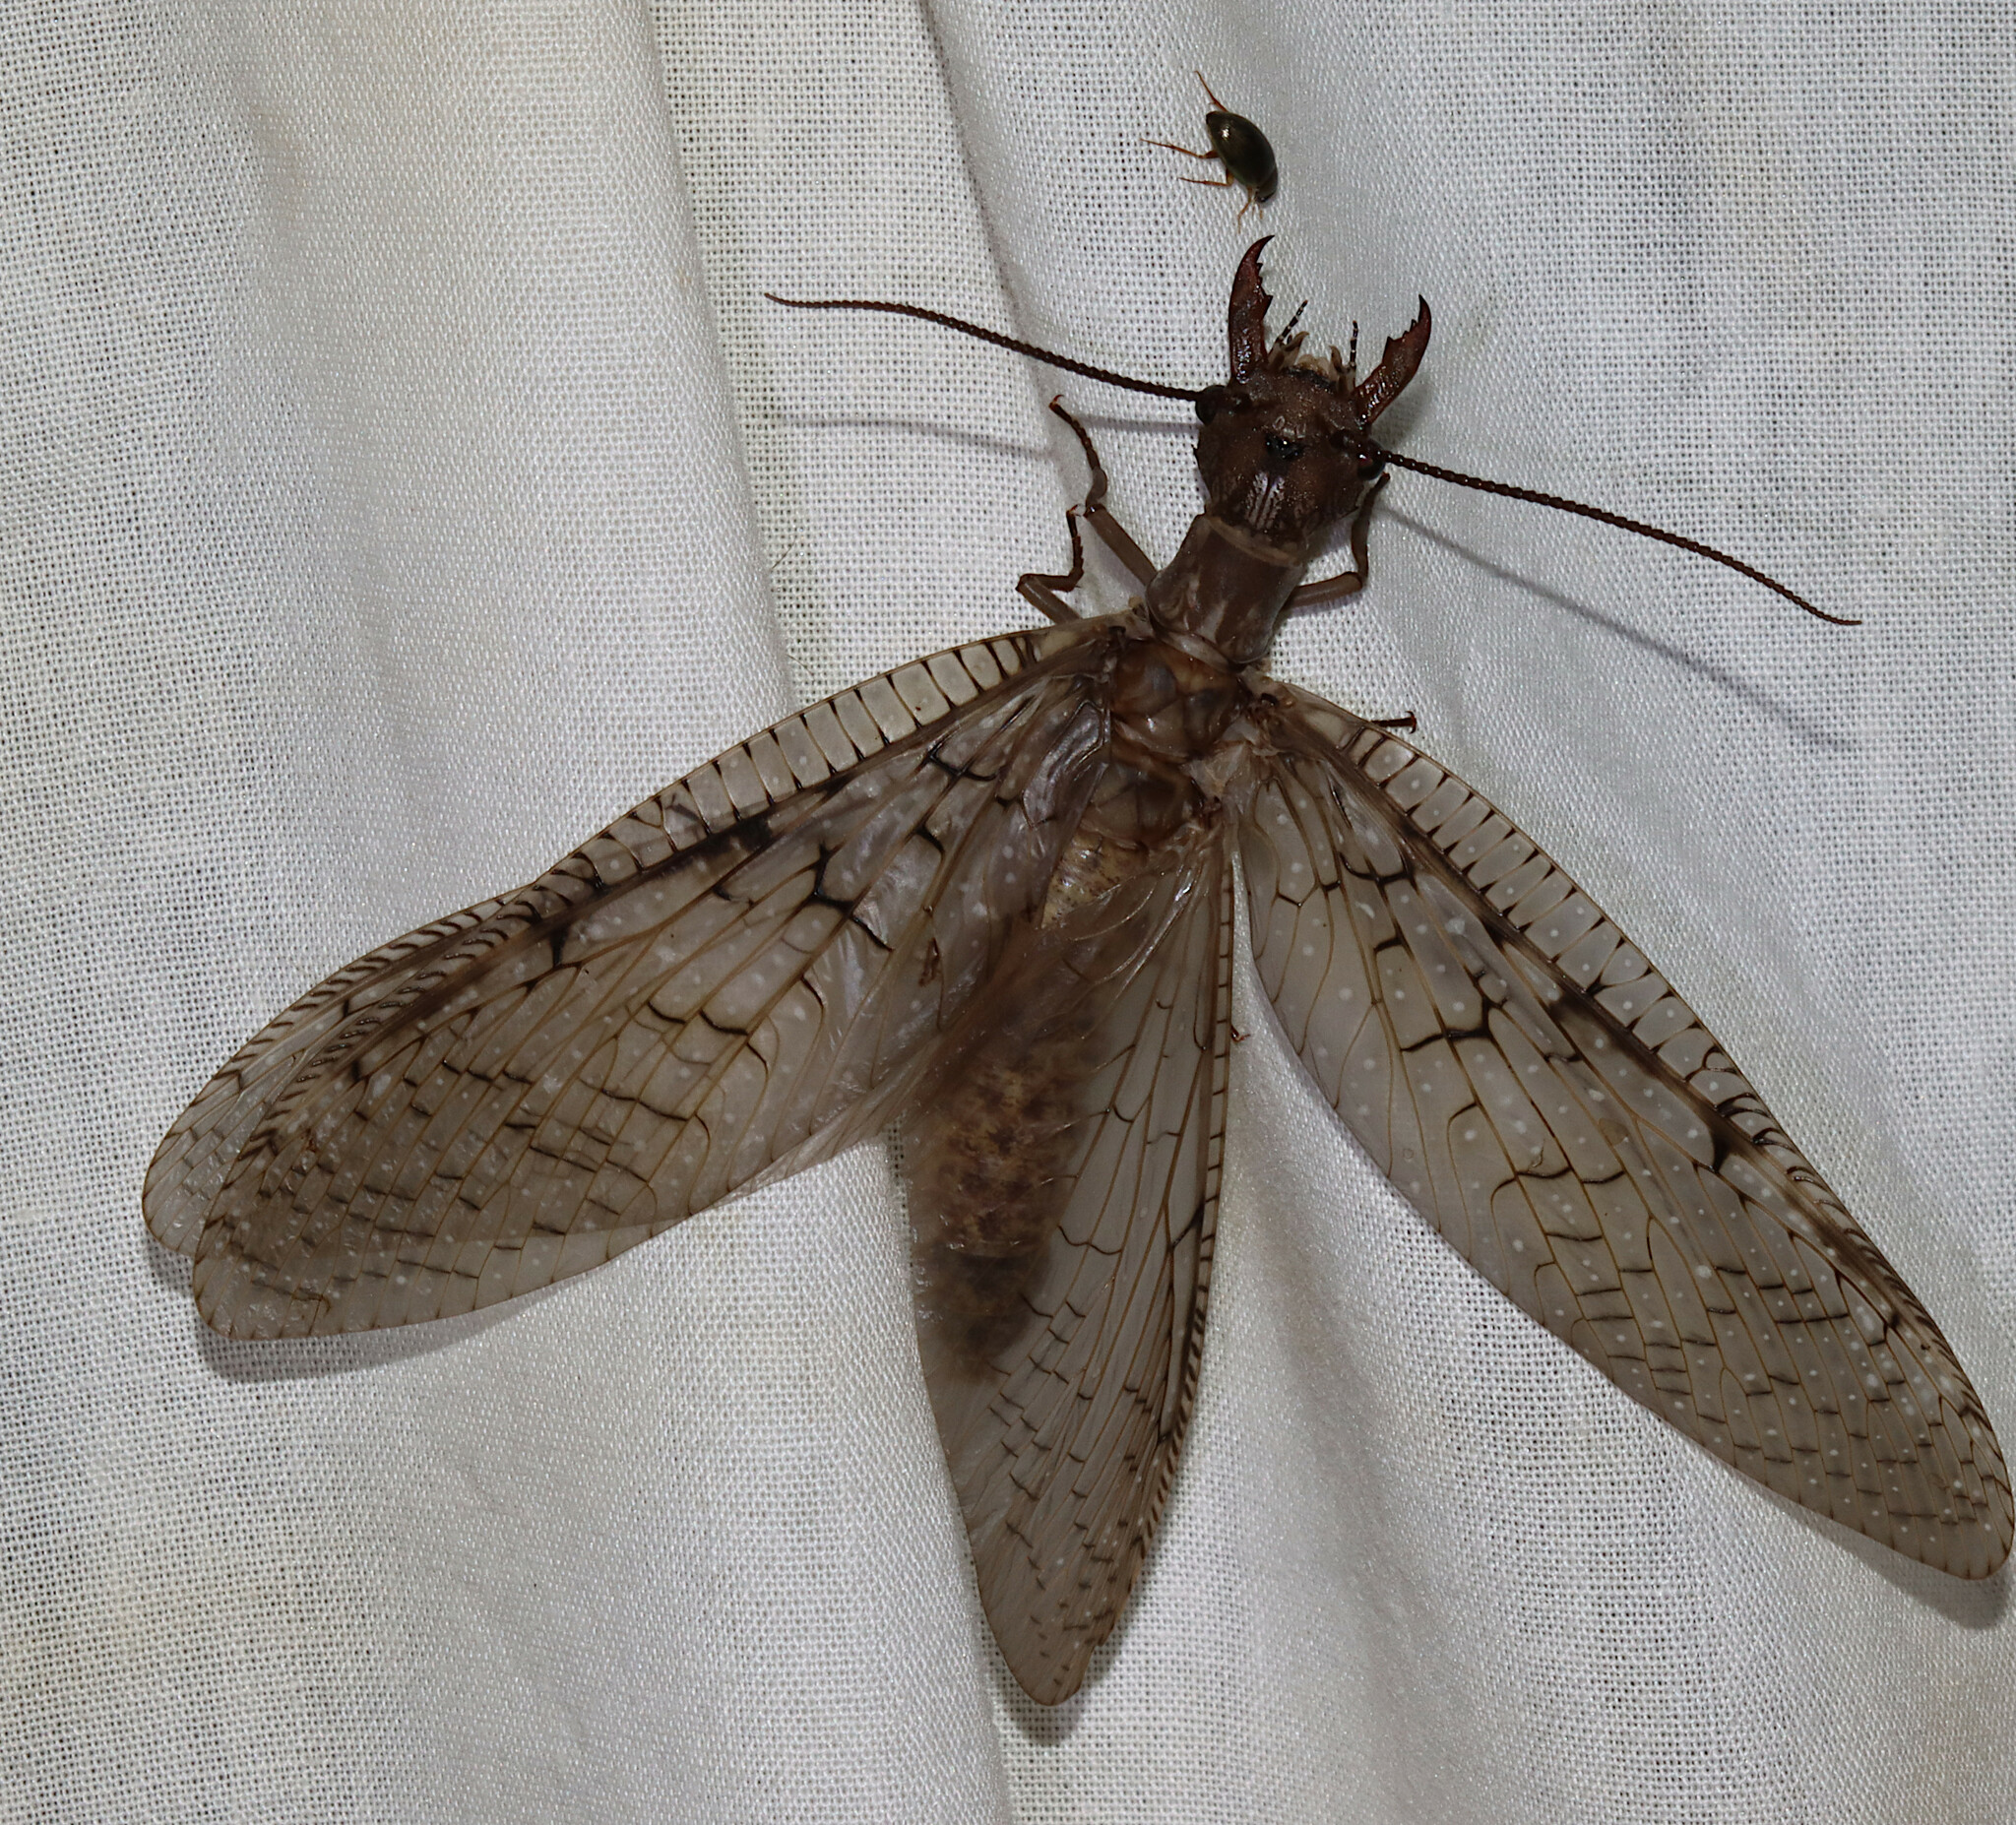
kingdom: Animalia
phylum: Arthropoda
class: Insecta
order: Megaloptera
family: Corydalidae
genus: Corydalus
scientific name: Corydalus cornutus
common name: Dobsonfly
